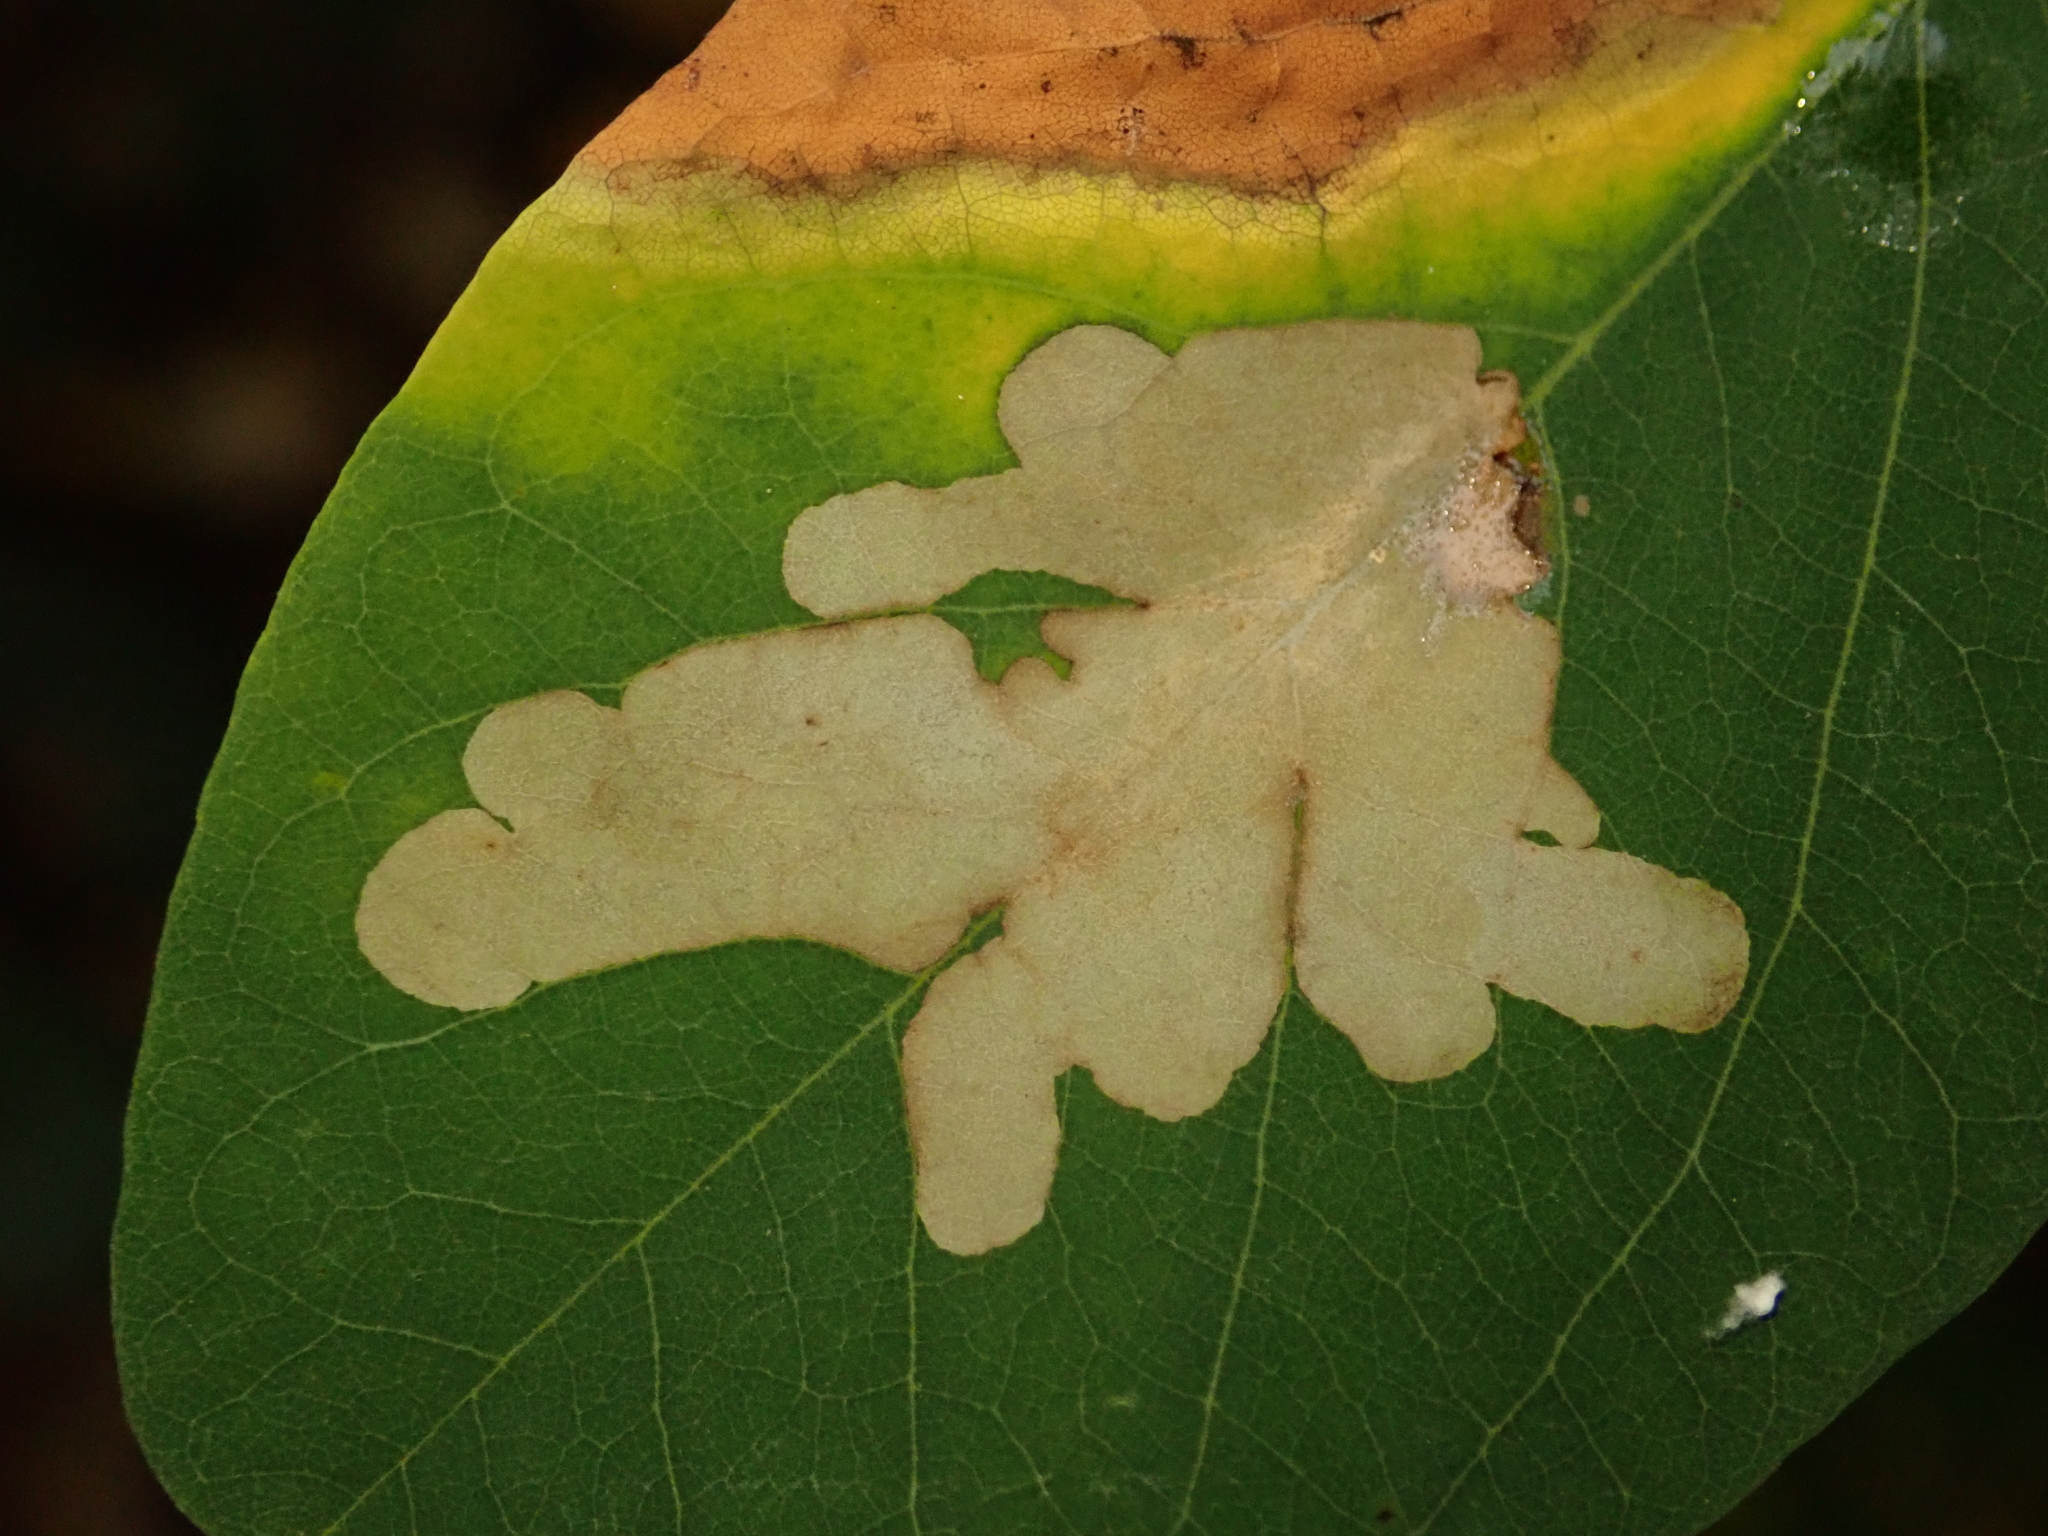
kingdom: Animalia
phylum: Arthropoda
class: Insecta
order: Lepidoptera
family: Gracillariidae
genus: Parectopa
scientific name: Parectopa robiniella
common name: Locust digitate leafminer
